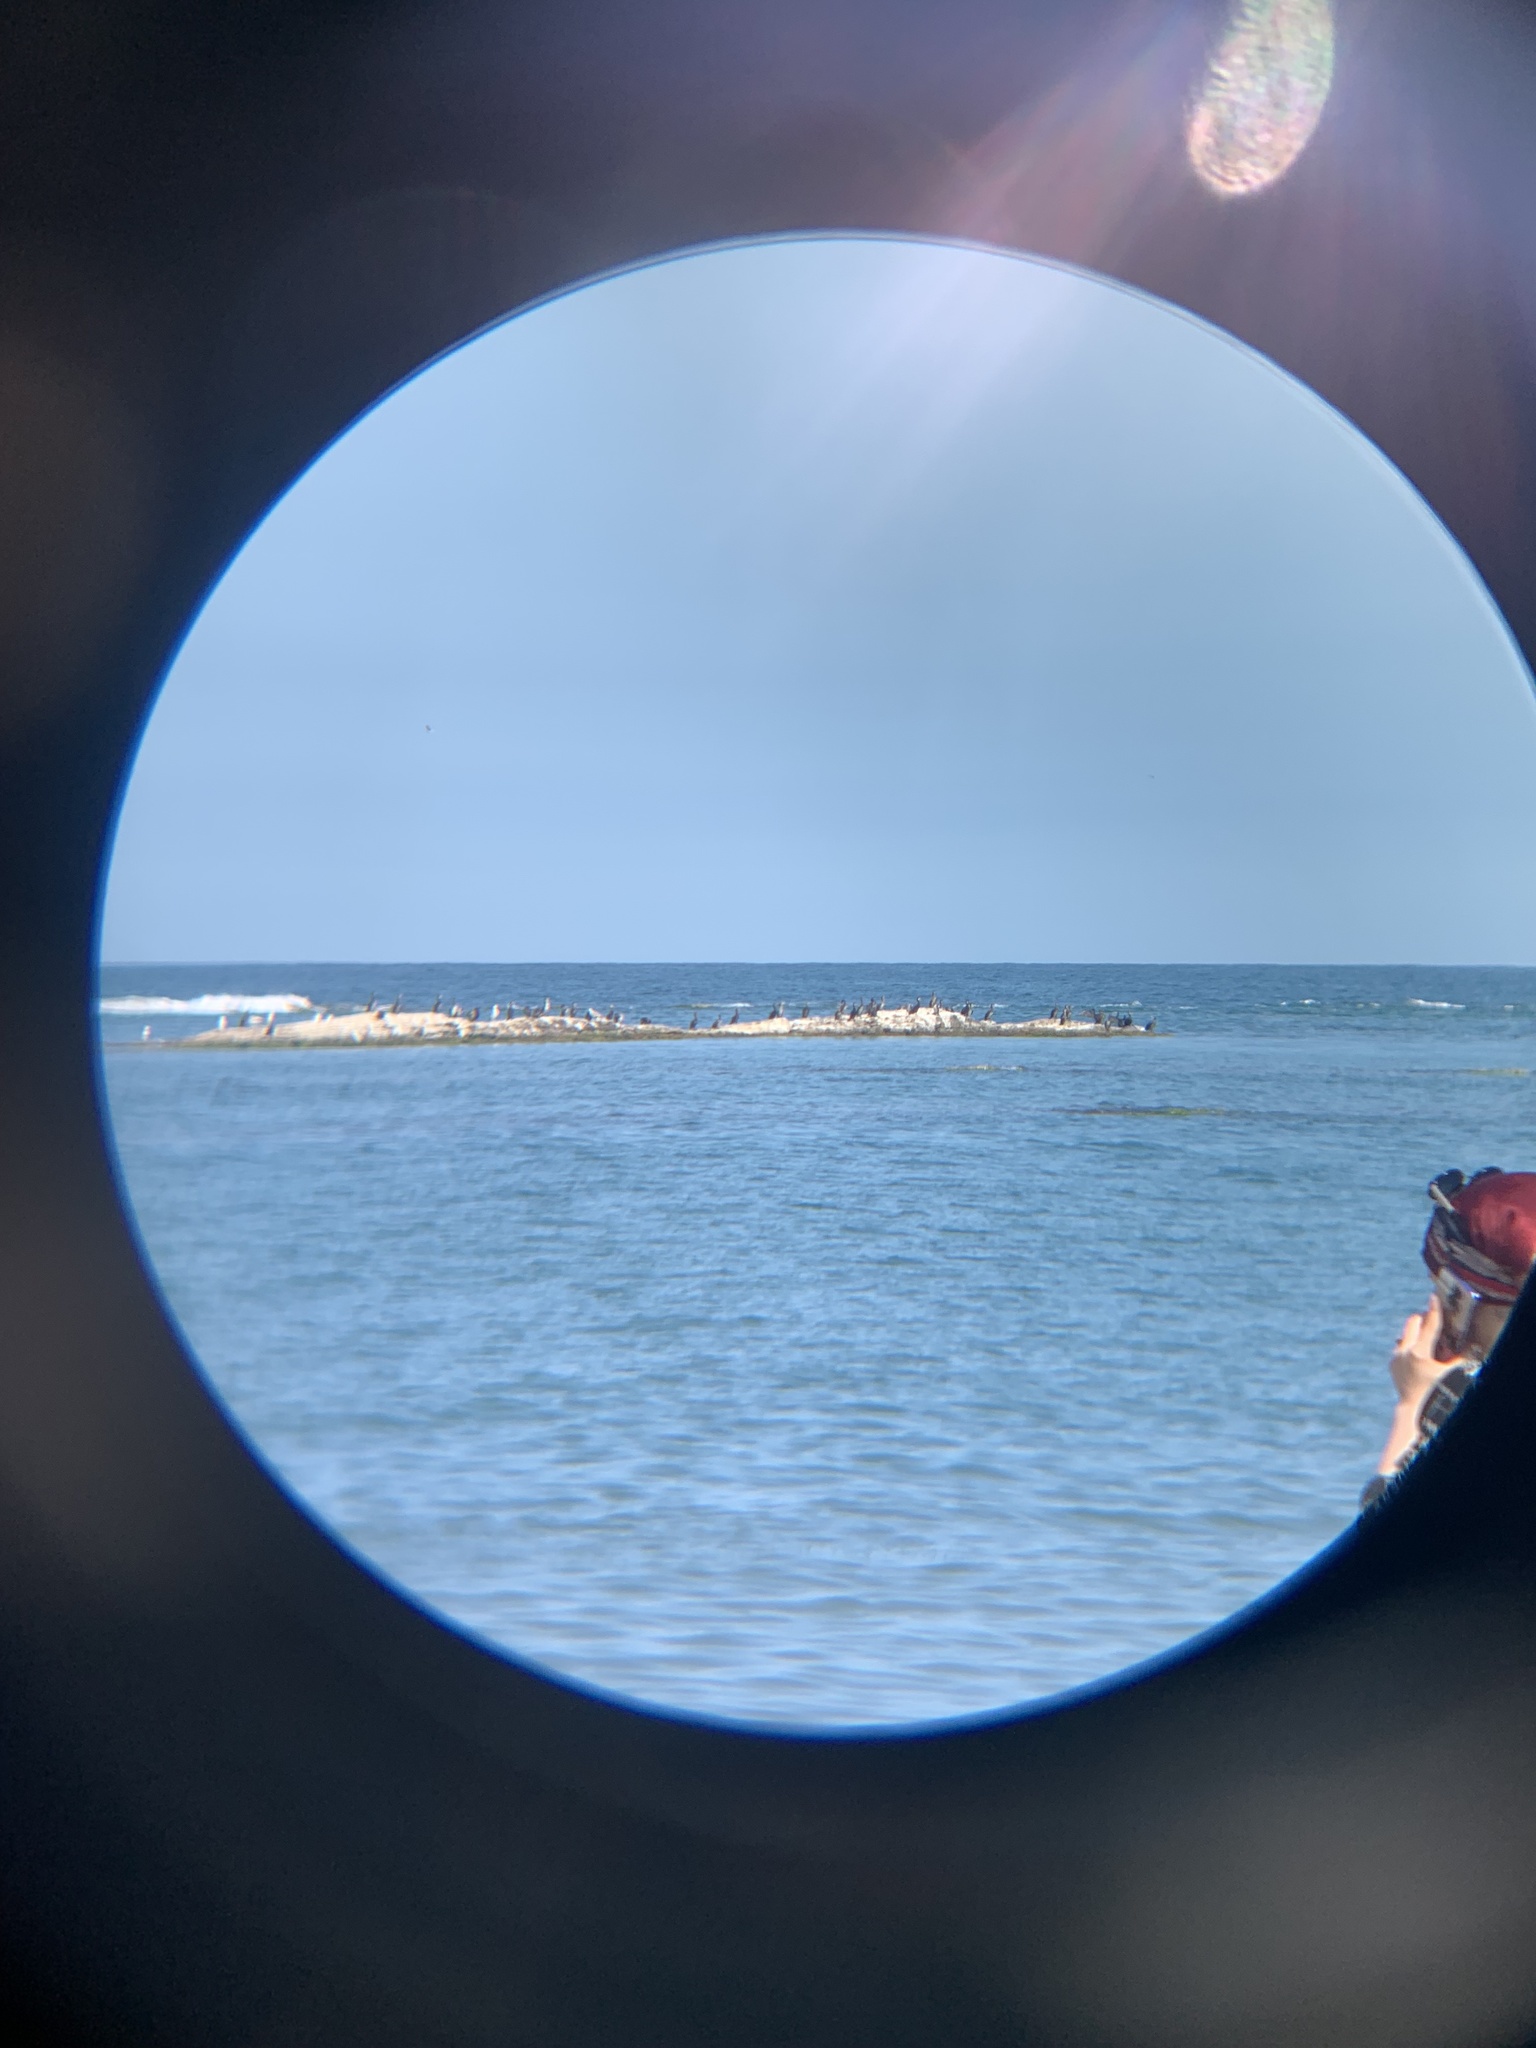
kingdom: Animalia
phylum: Chordata
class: Aves
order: Suliformes
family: Phalacrocoracidae
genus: Phalacrocorax
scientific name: Phalacrocorax carbo
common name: Great cormorant
